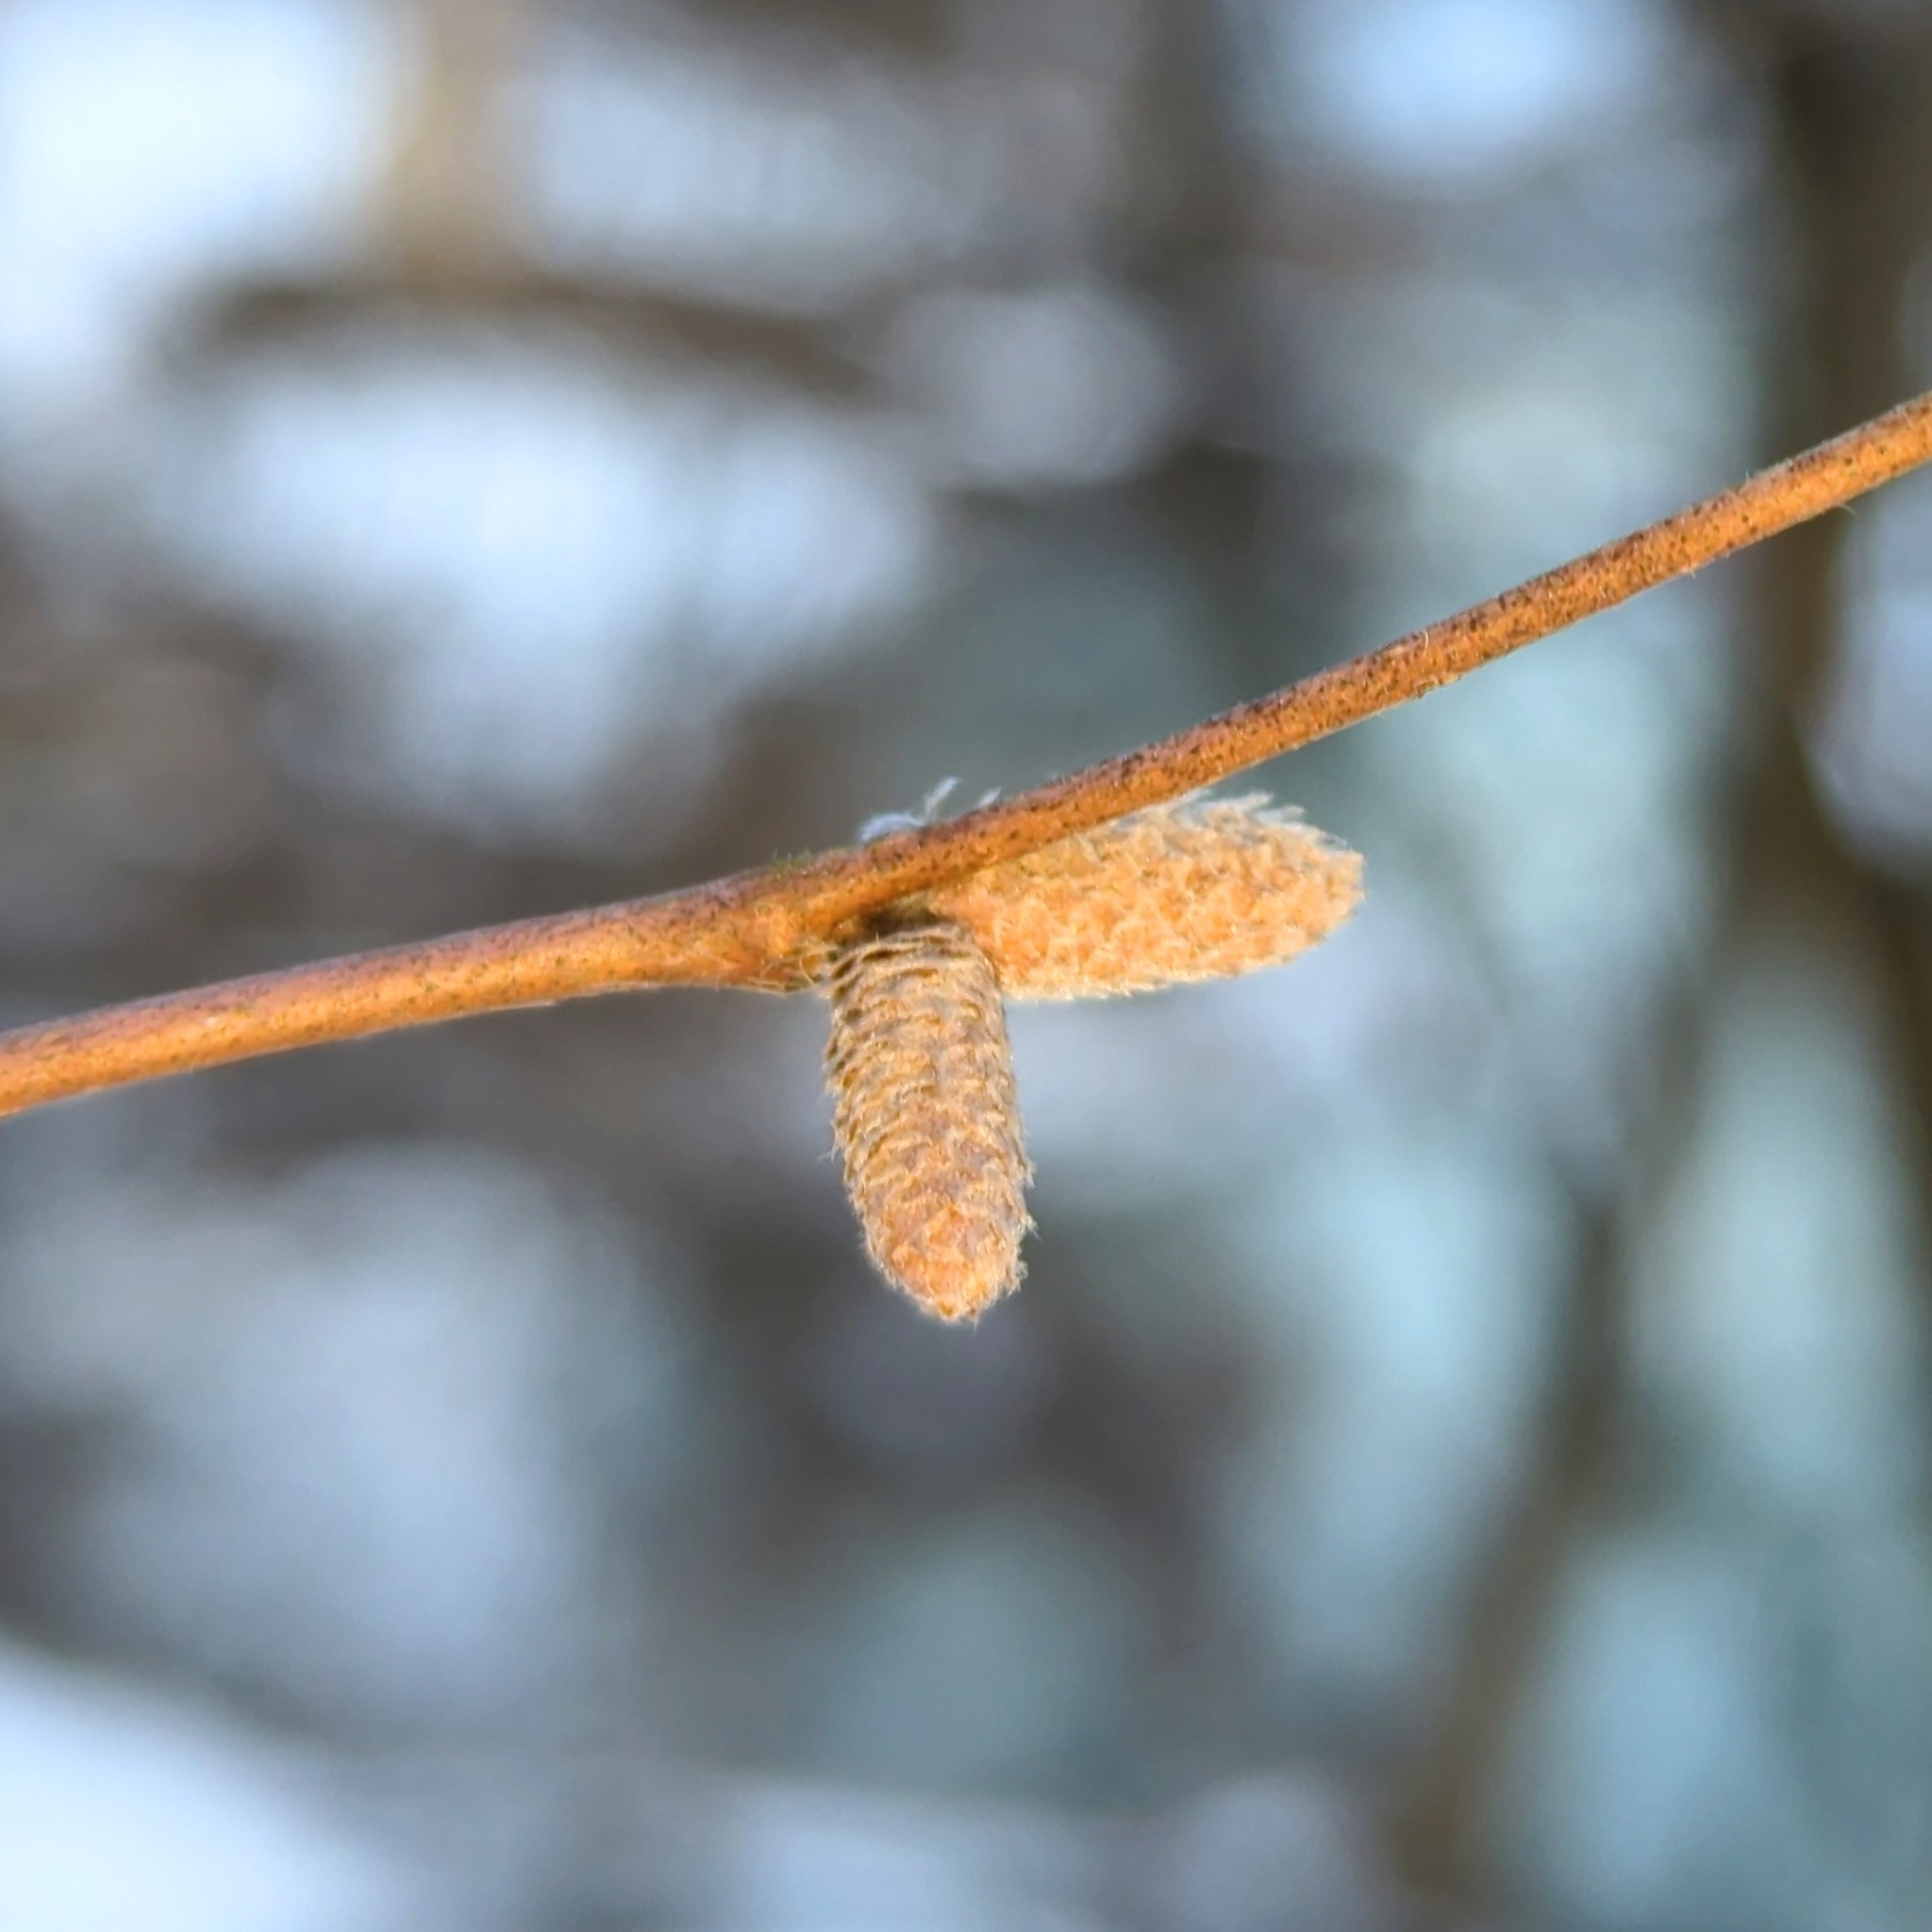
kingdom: Plantae
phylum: Tracheophyta
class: Magnoliopsida
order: Fagales
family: Betulaceae
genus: Corylus
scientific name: Corylus cornuta
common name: Beaked hazel
